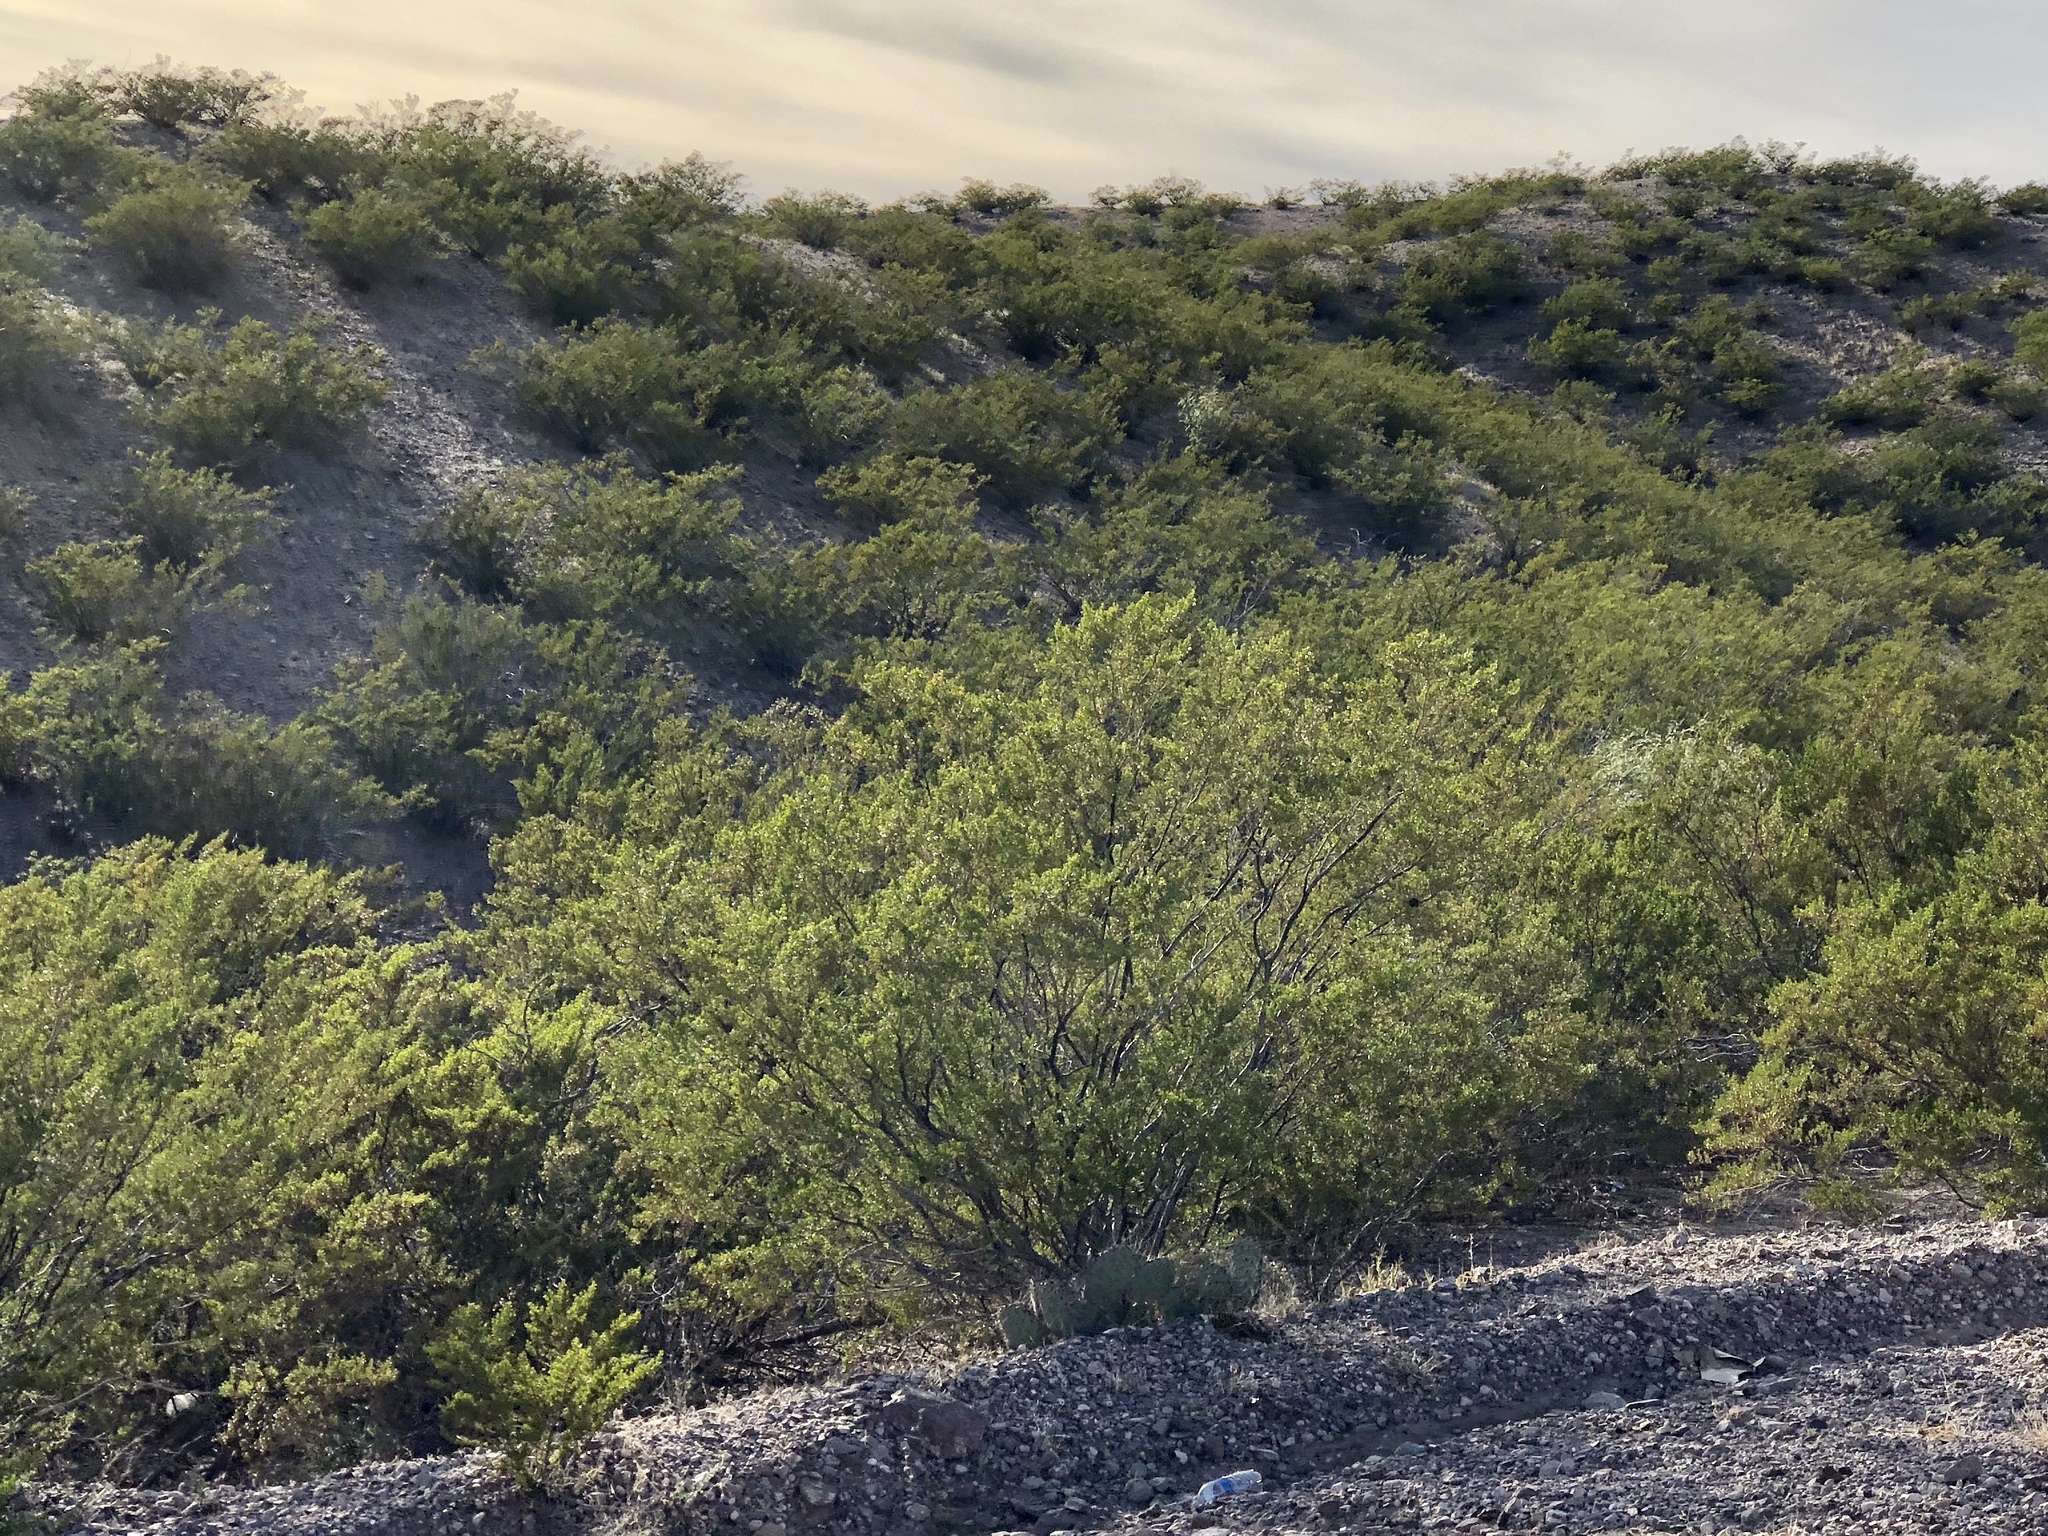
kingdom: Plantae
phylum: Tracheophyta
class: Magnoliopsida
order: Zygophyllales
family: Zygophyllaceae
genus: Larrea
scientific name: Larrea tridentata
